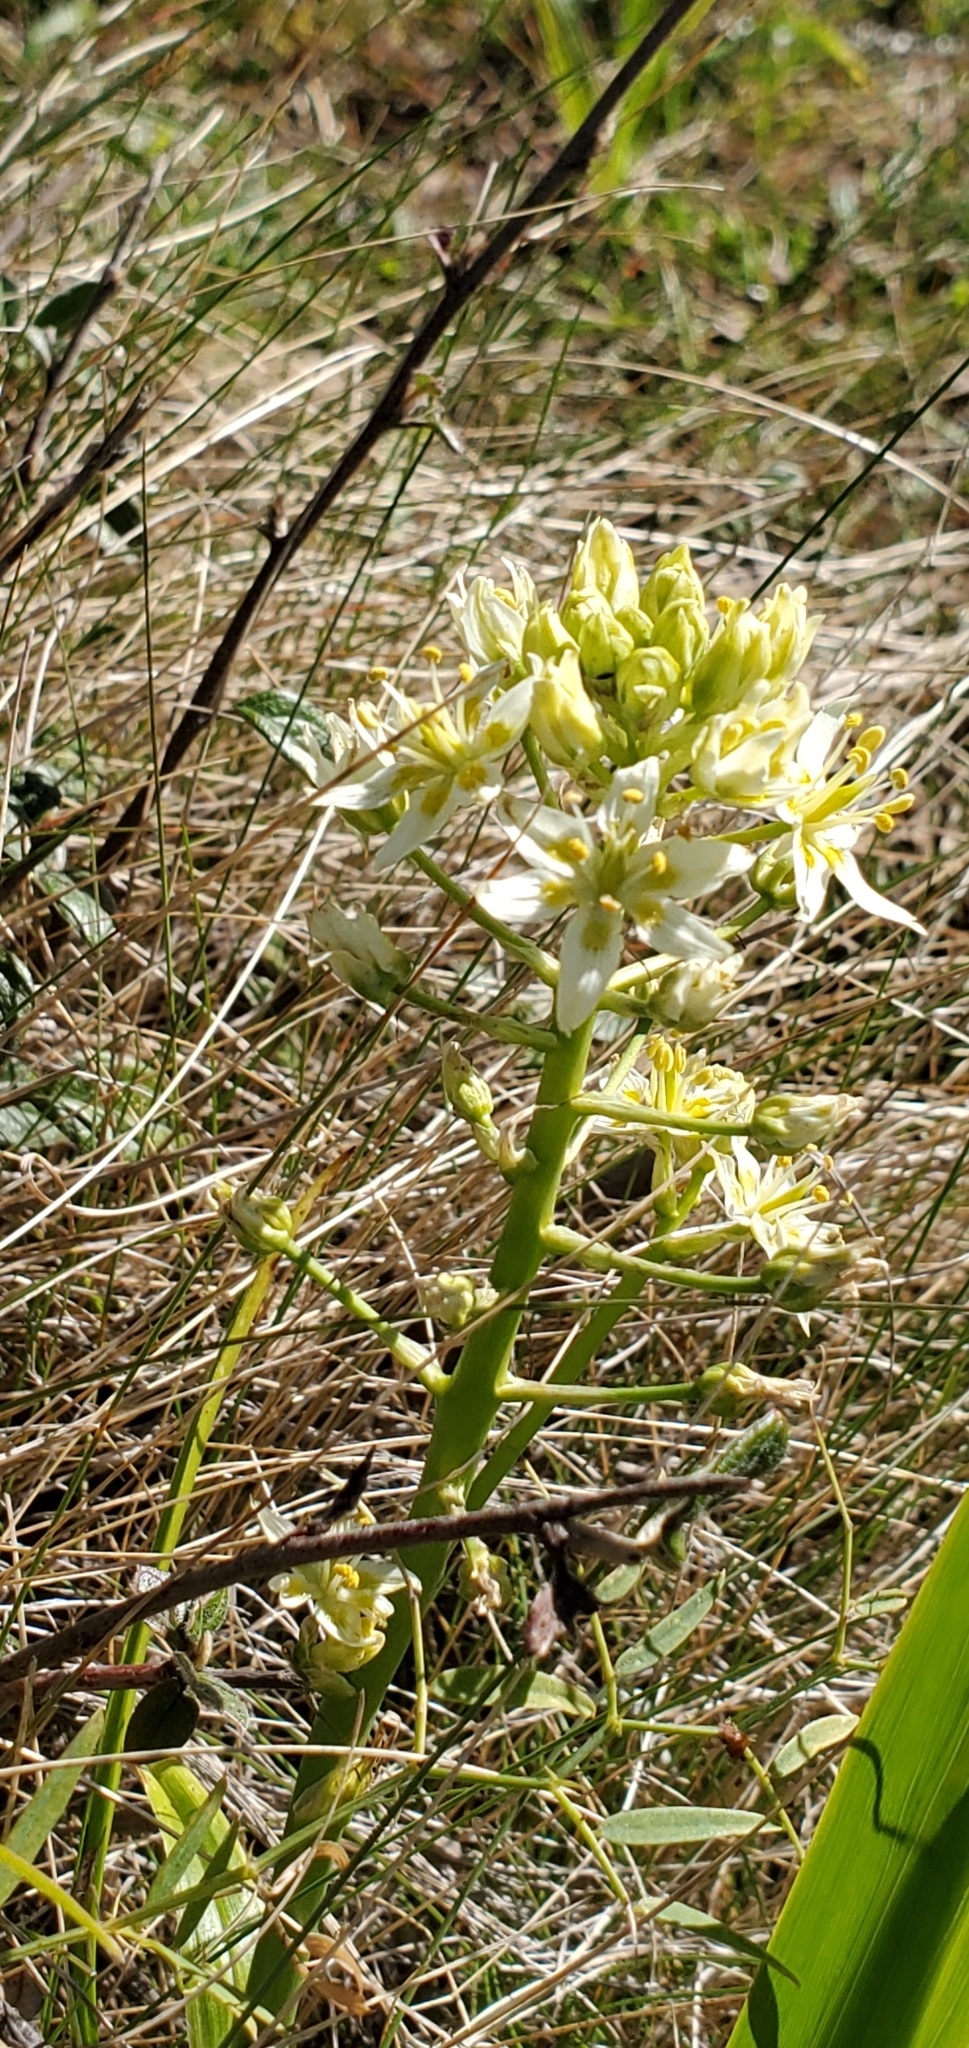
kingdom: Plantae
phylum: Tracheophyta
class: Liliopsida
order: Liliales
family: Melanthiaceae
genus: Toxicoscordion
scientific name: Toxicoscordion fremontii
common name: Fremont's death camas
